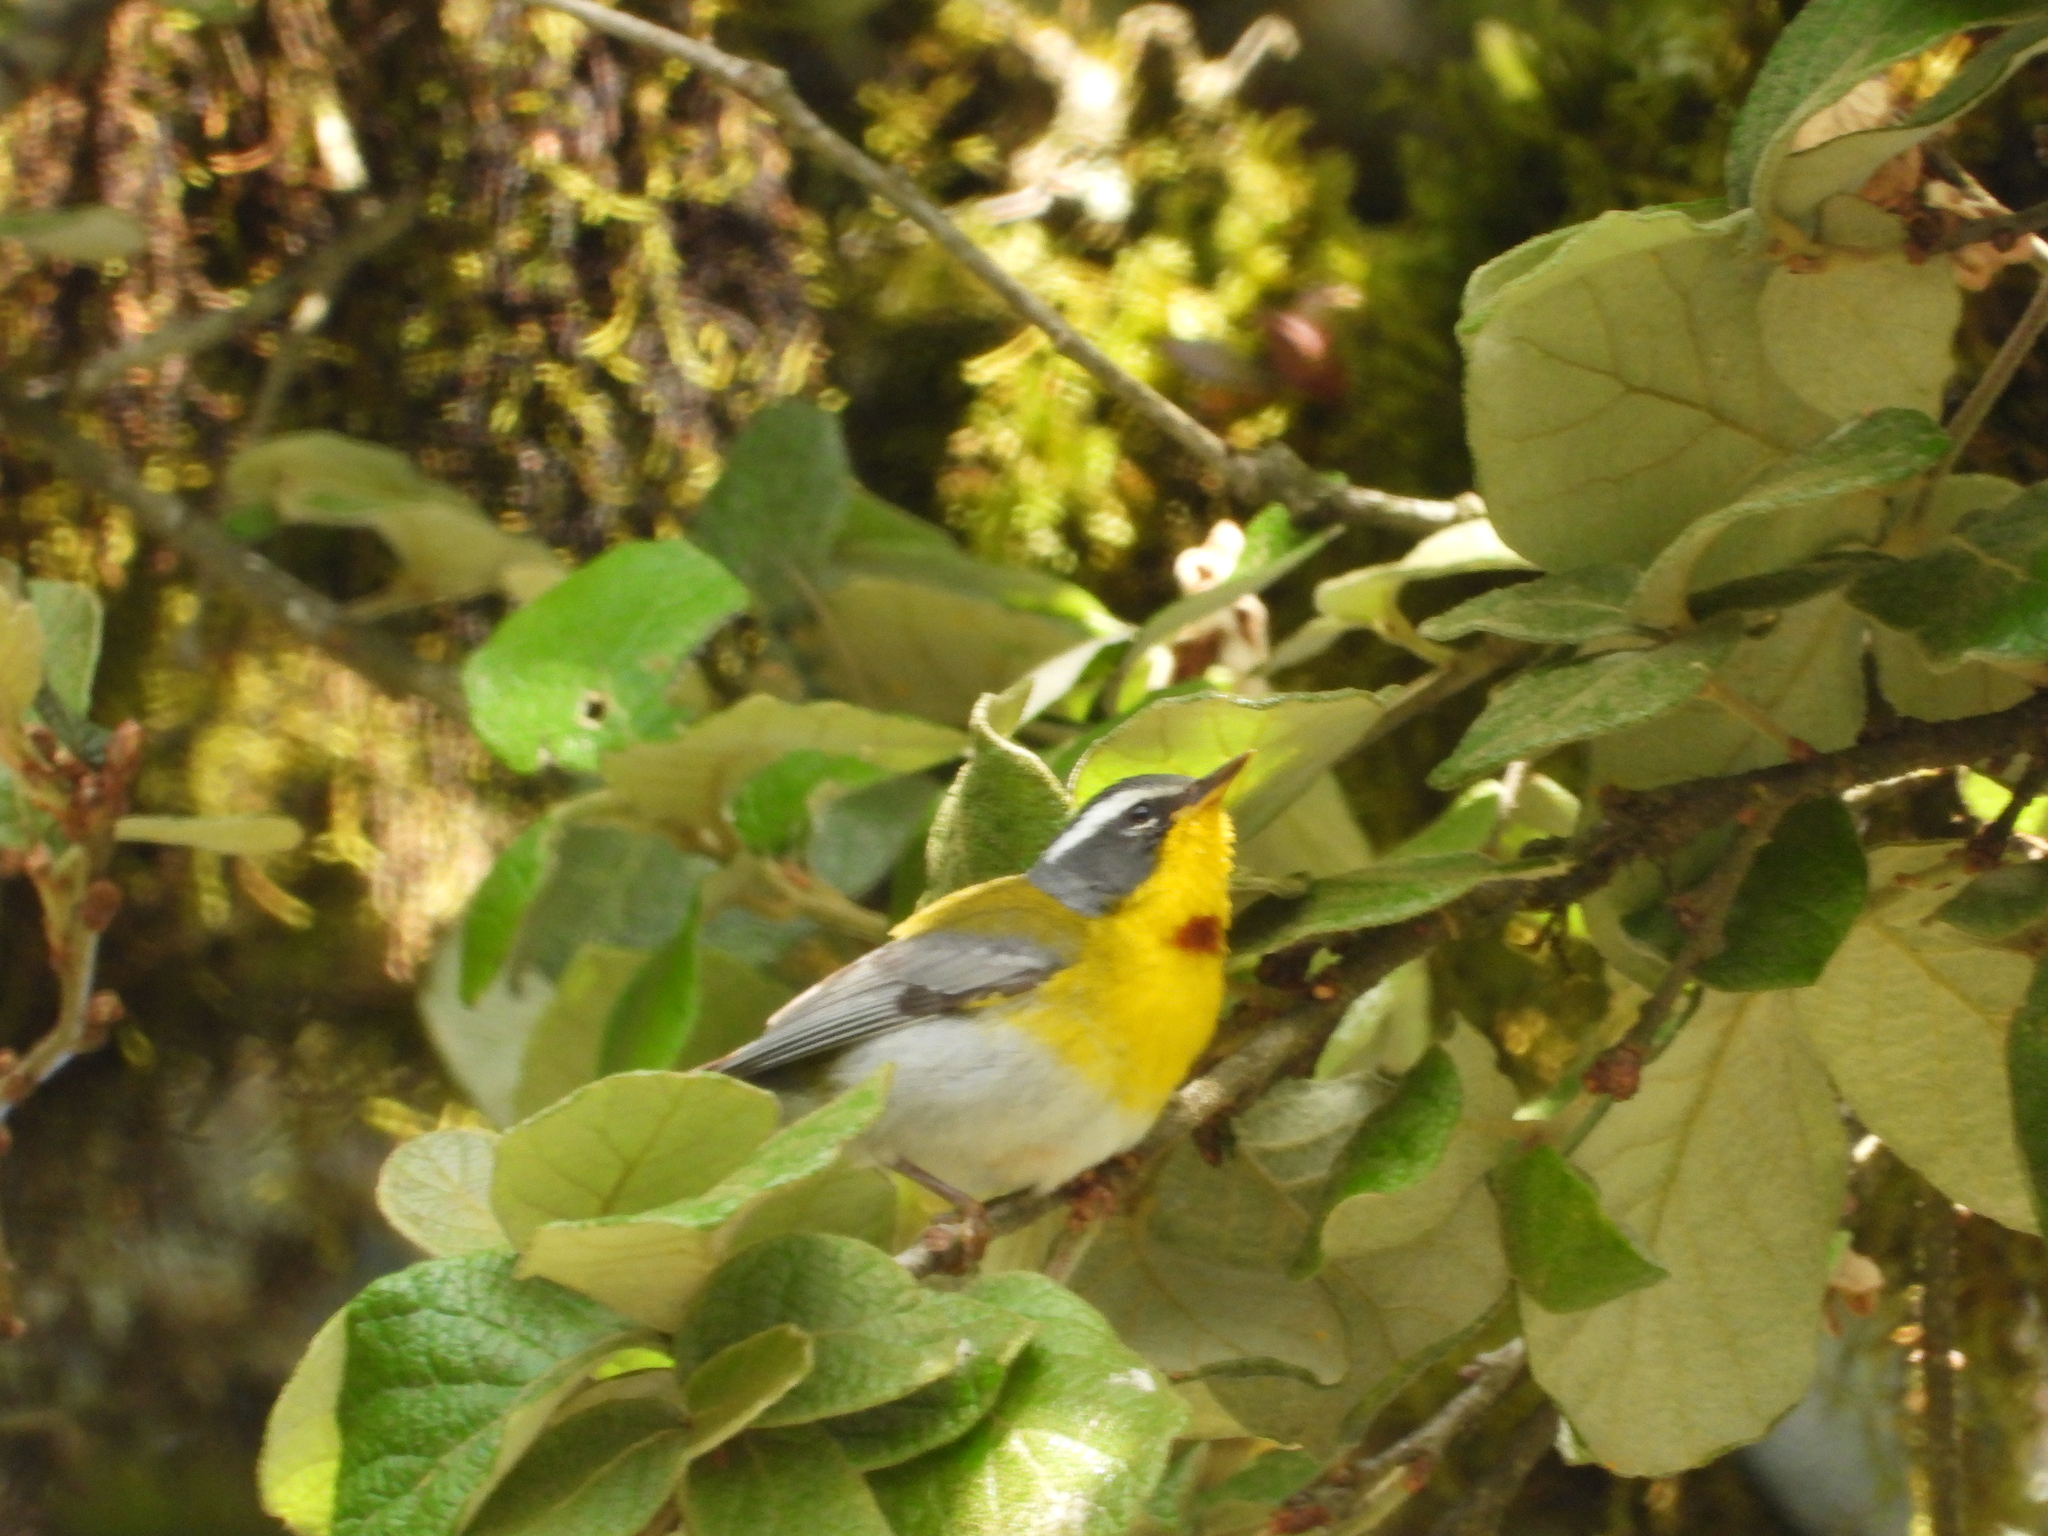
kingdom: Animalia
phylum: Chordata
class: Aves
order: Passeriformes
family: Parulidae
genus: Oreothlypis
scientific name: Oreothlypis superciliosa
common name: Crescent-chested warbler
